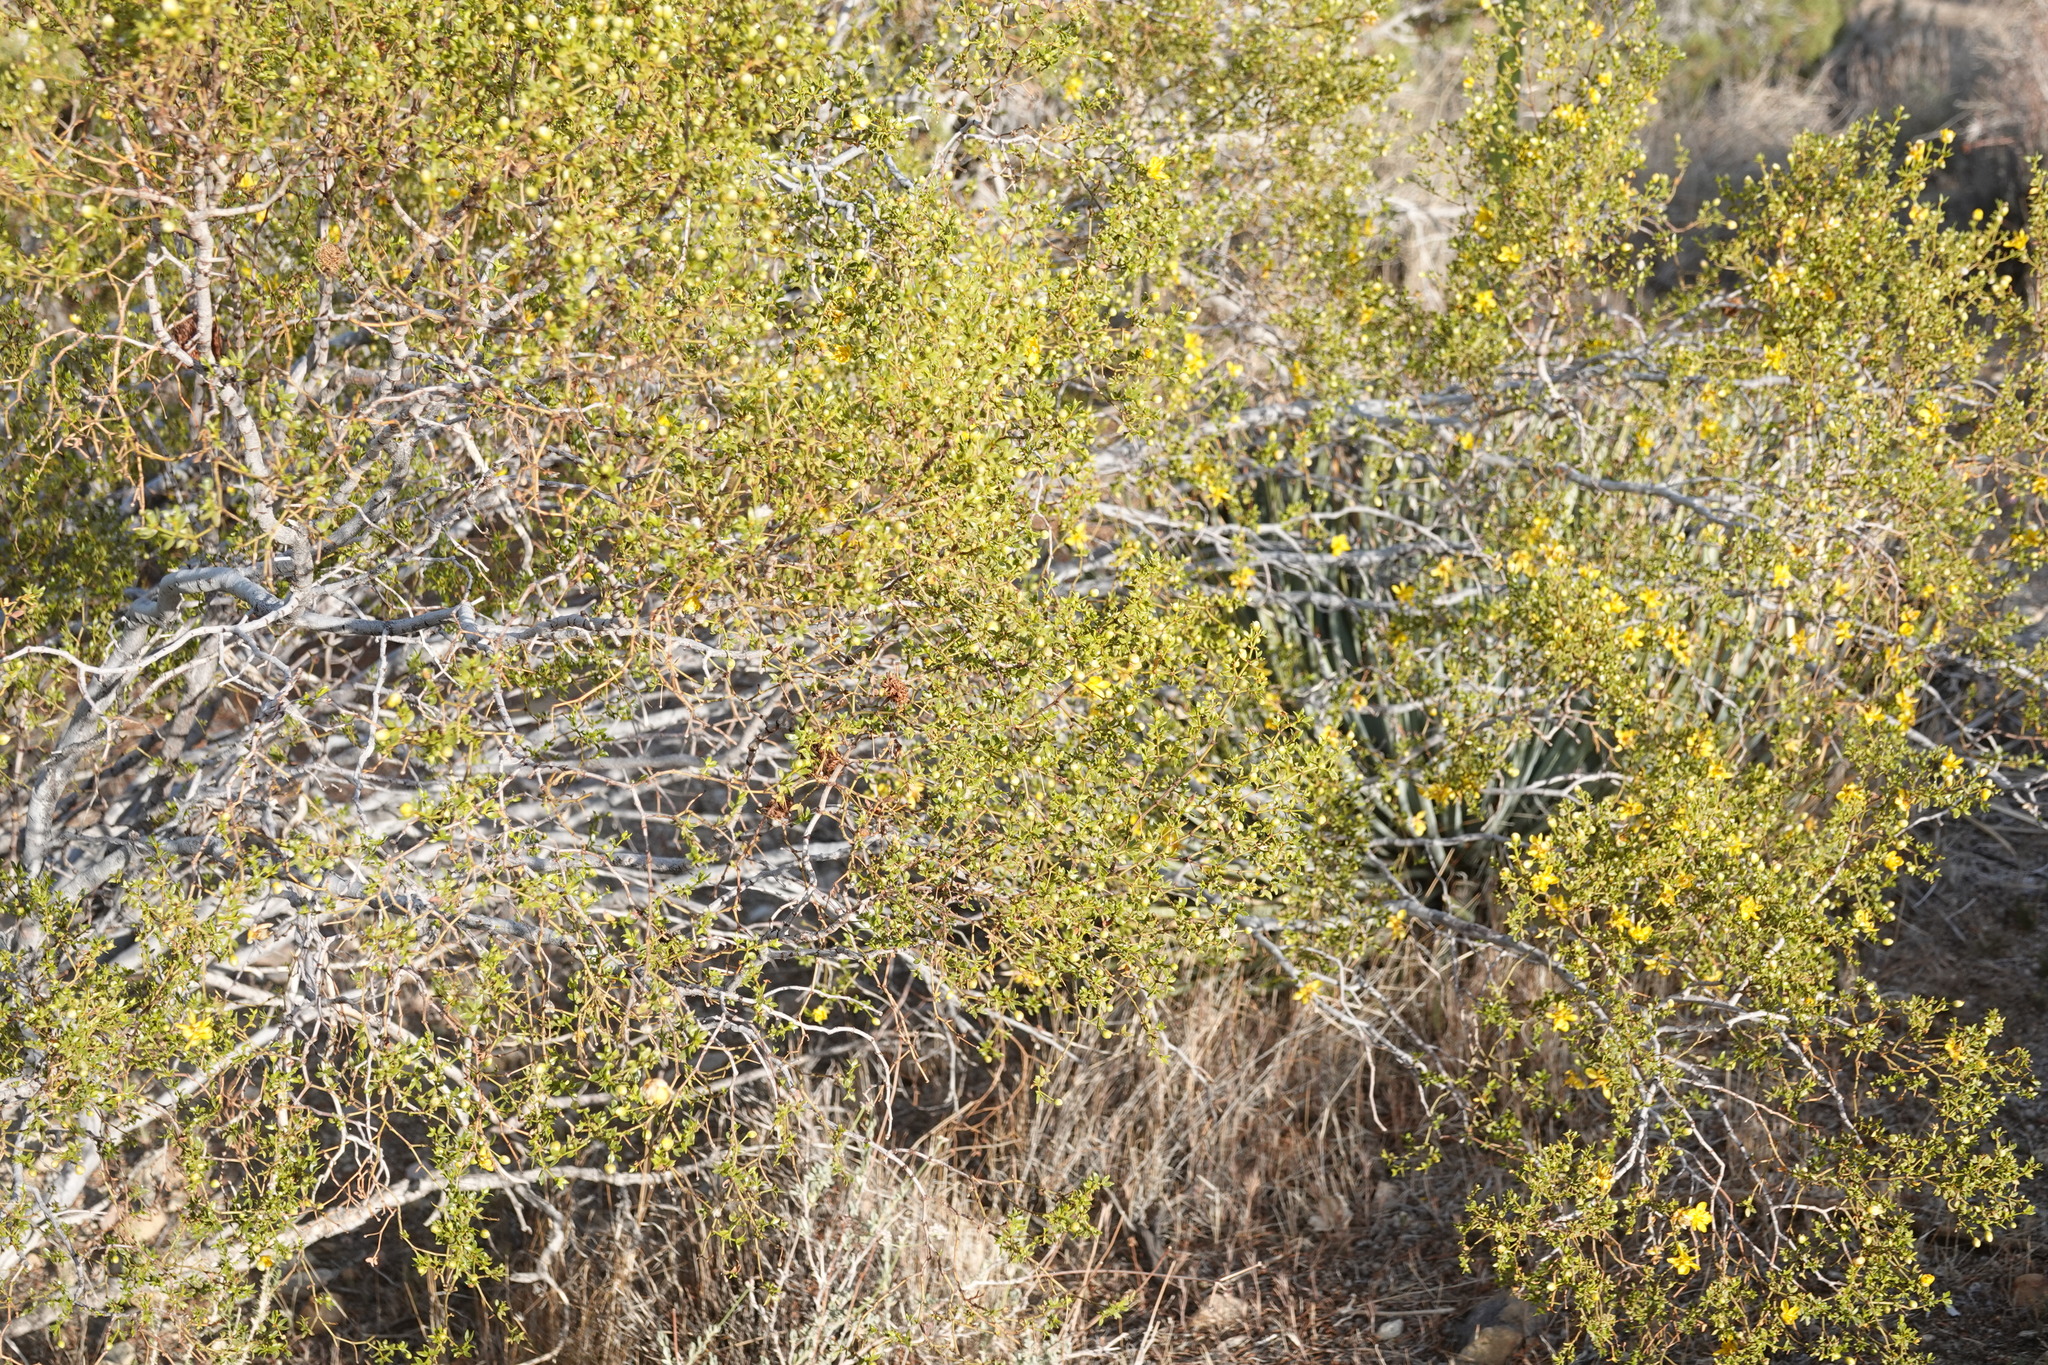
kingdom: Plantae
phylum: Tracheophyta
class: Magnoliopsida
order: Zygophyllales
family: Zygophyllaceae
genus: Larrea
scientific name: Larrea tridentata
